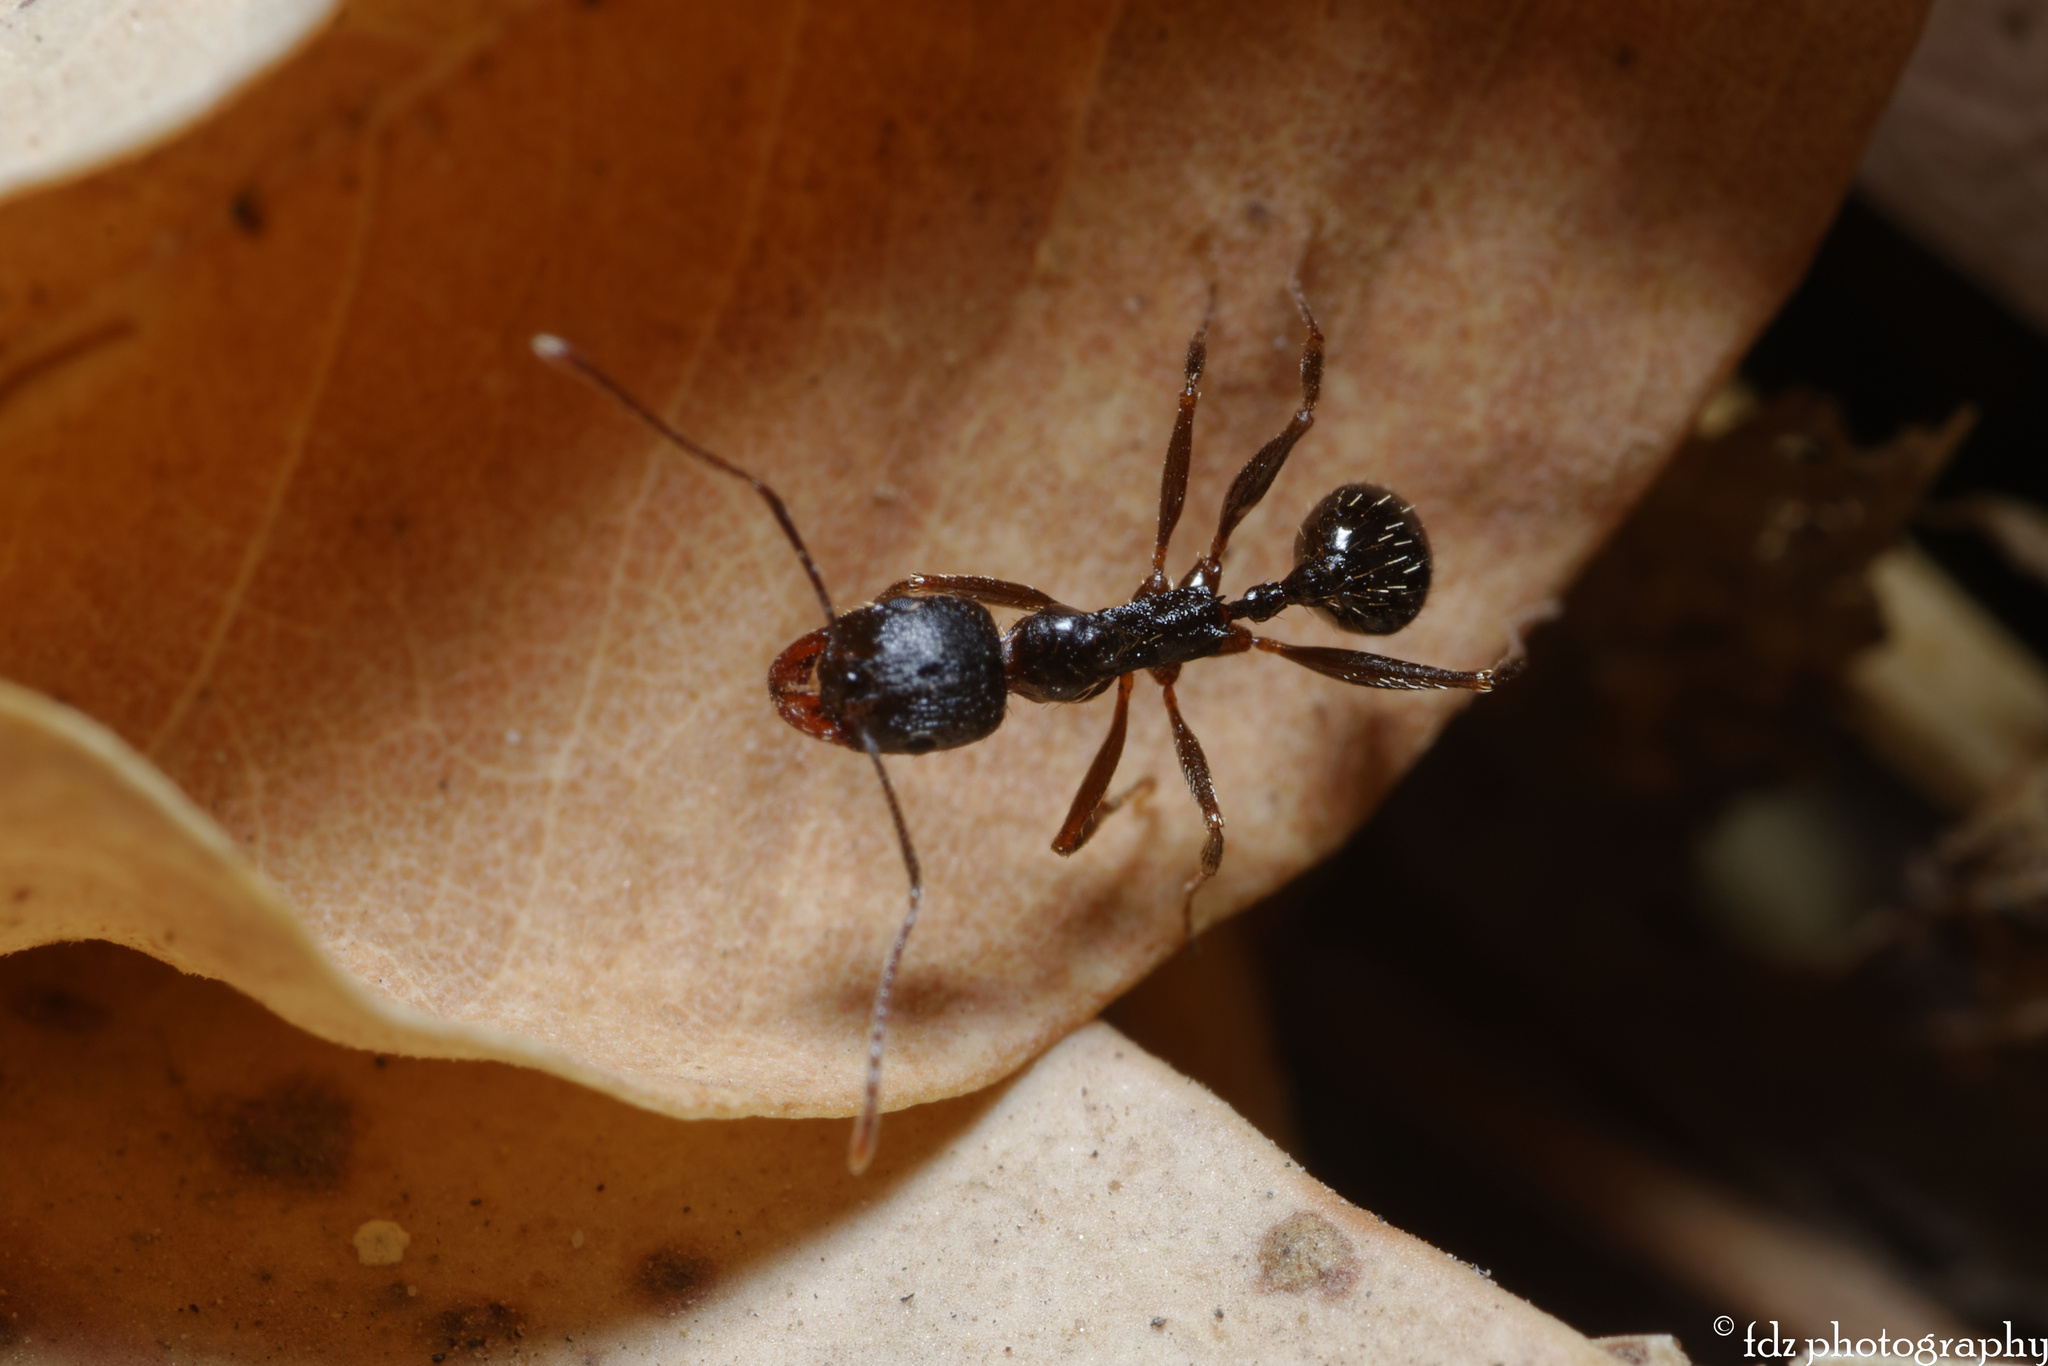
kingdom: Animalia
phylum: Arthropoda
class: Insecta
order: Hymenoptera
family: Formicidae
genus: Aphaenogaster
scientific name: Aphaenogaster gibbosa
